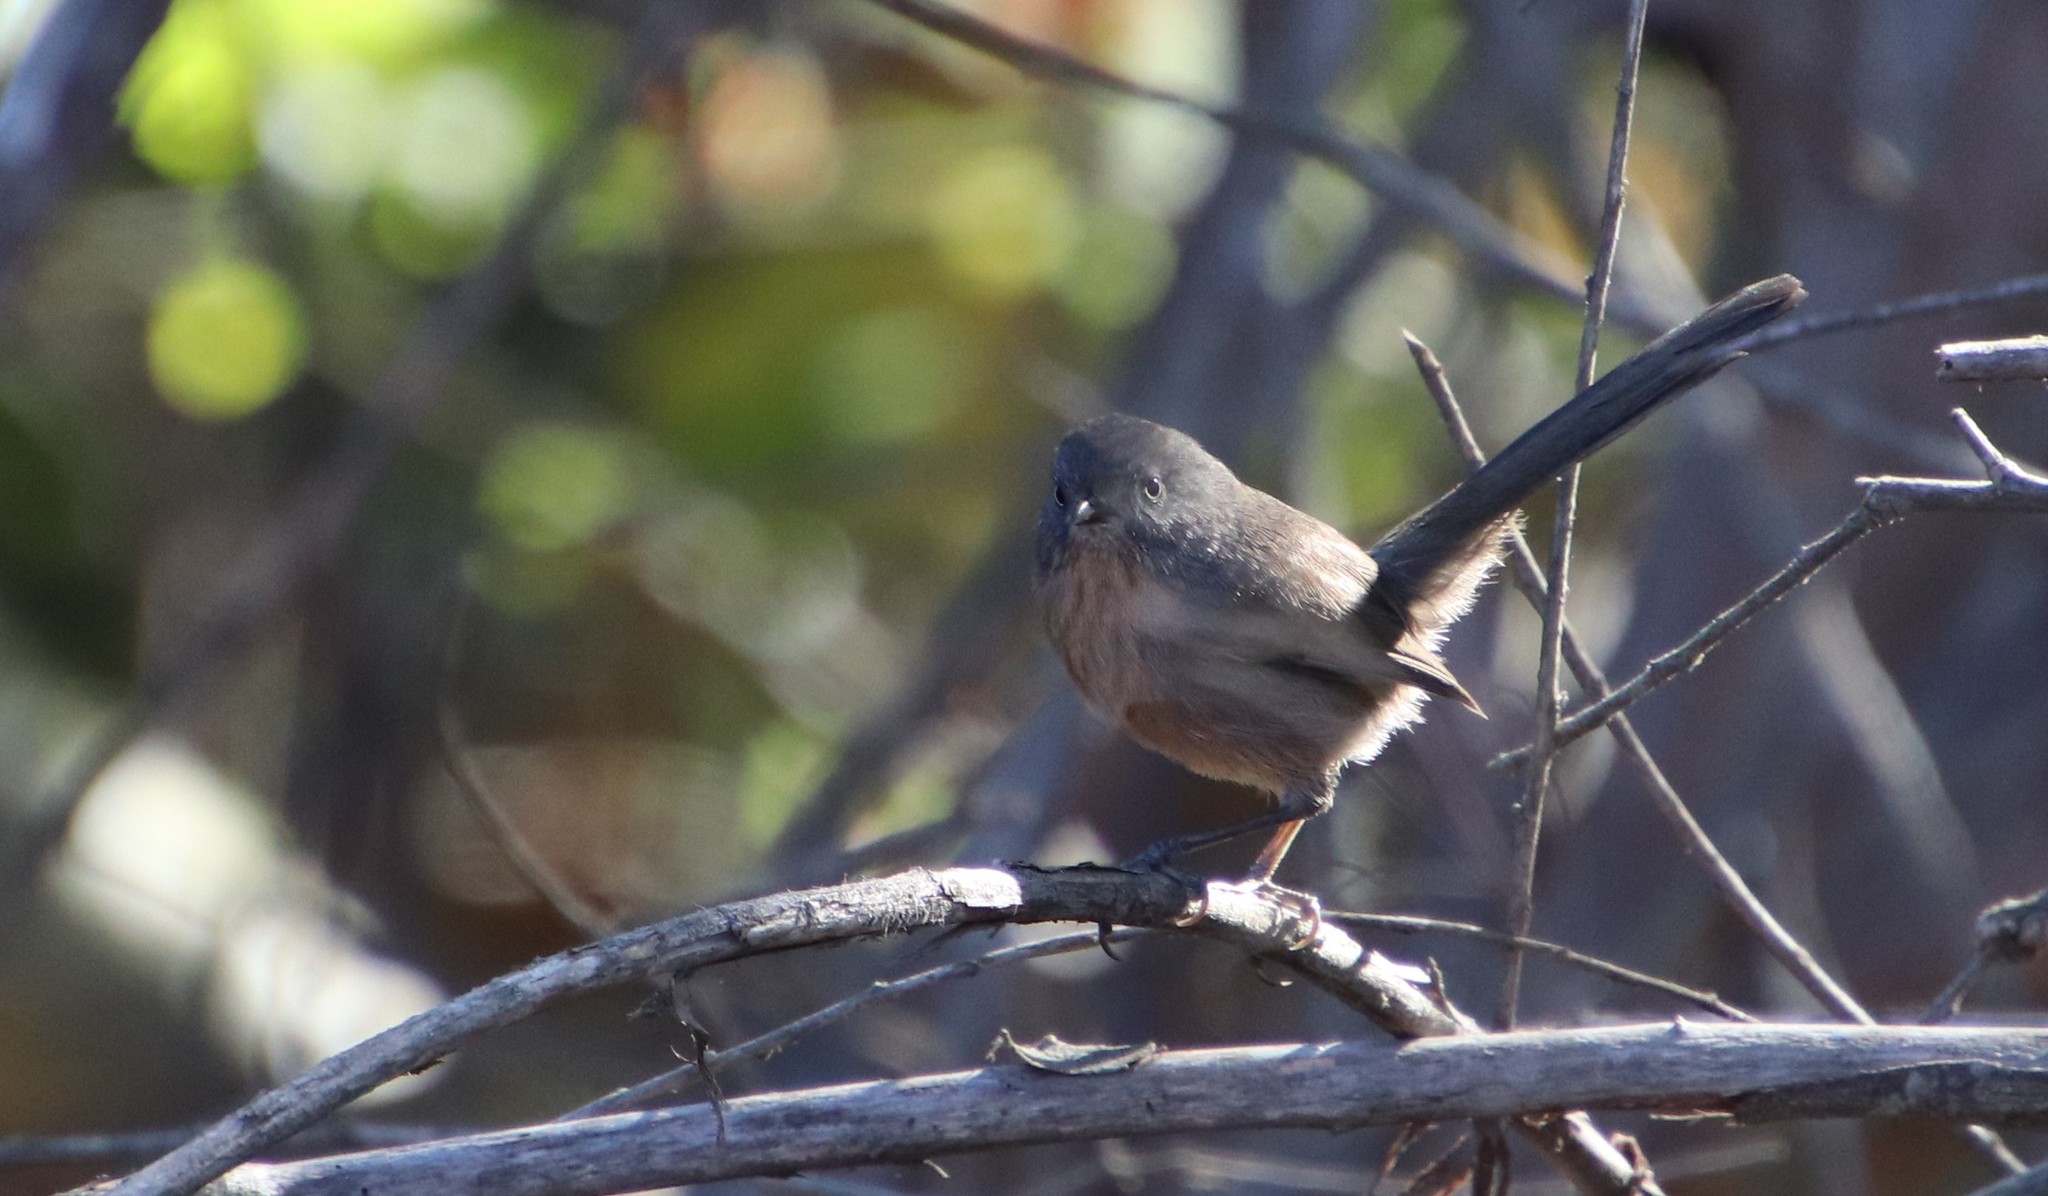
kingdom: Animalia
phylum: Chordata
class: Aves
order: Passeriformes
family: Sylviidae
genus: Chamaea
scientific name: Chamaea fasciata
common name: Wrentit
